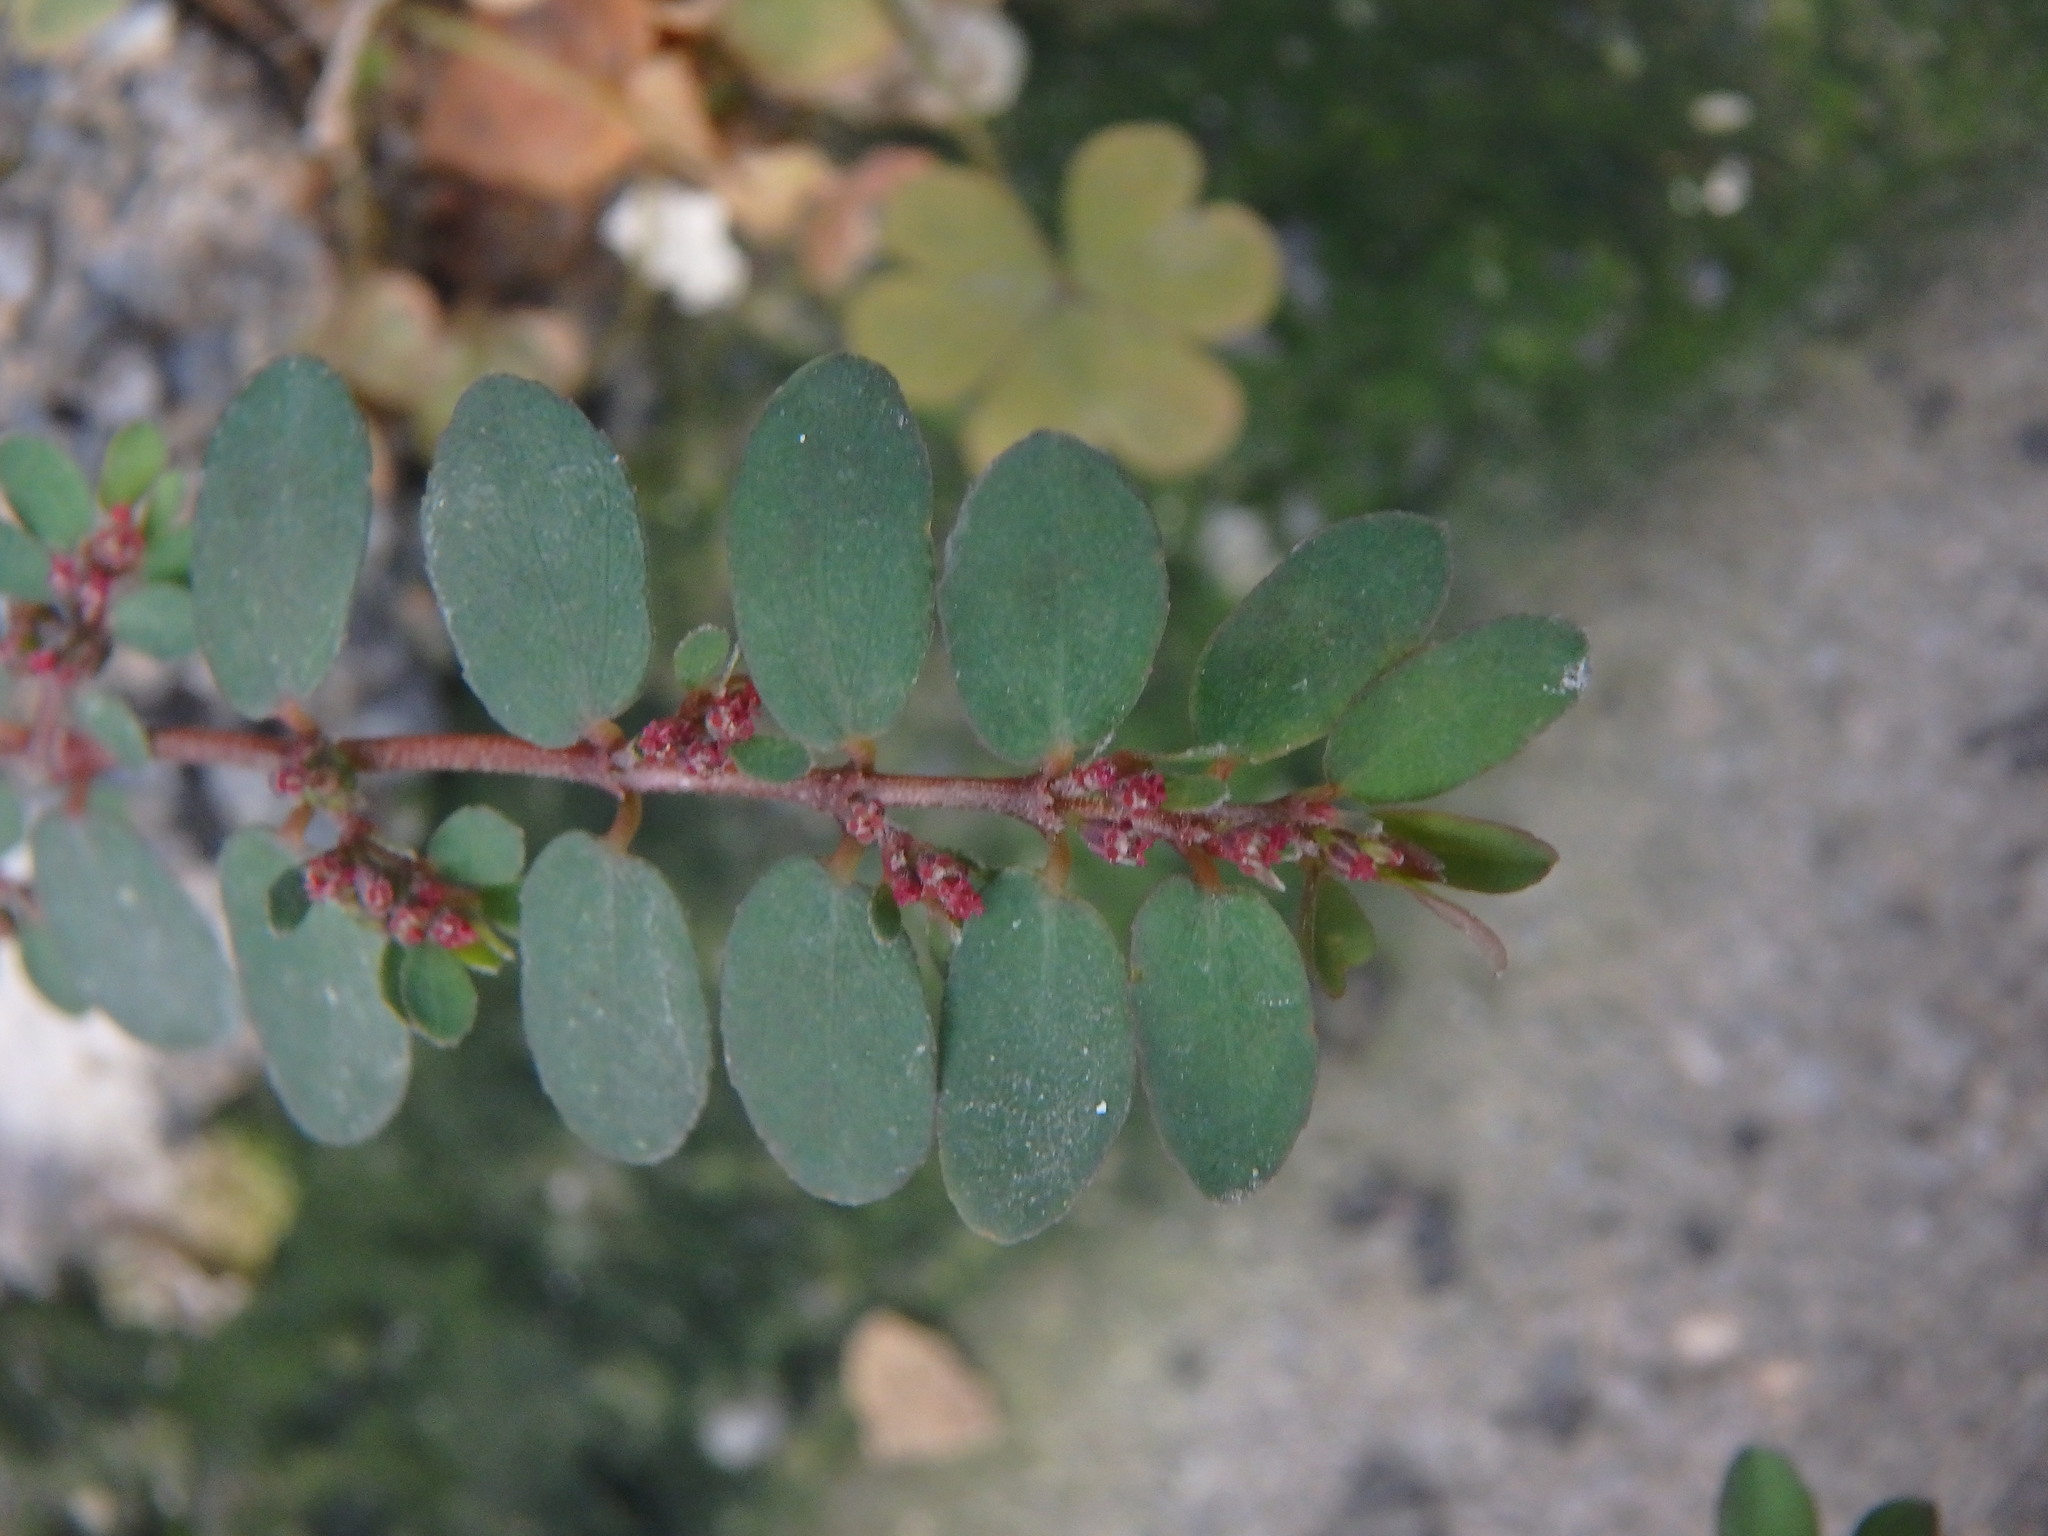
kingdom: Plantae
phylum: Tracheophyta
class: Magnoliopsida
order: Malpighiales
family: Euphorbiaceae
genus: Euphorbia
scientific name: Euphorbia prostrata
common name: Prostrate sandmat
